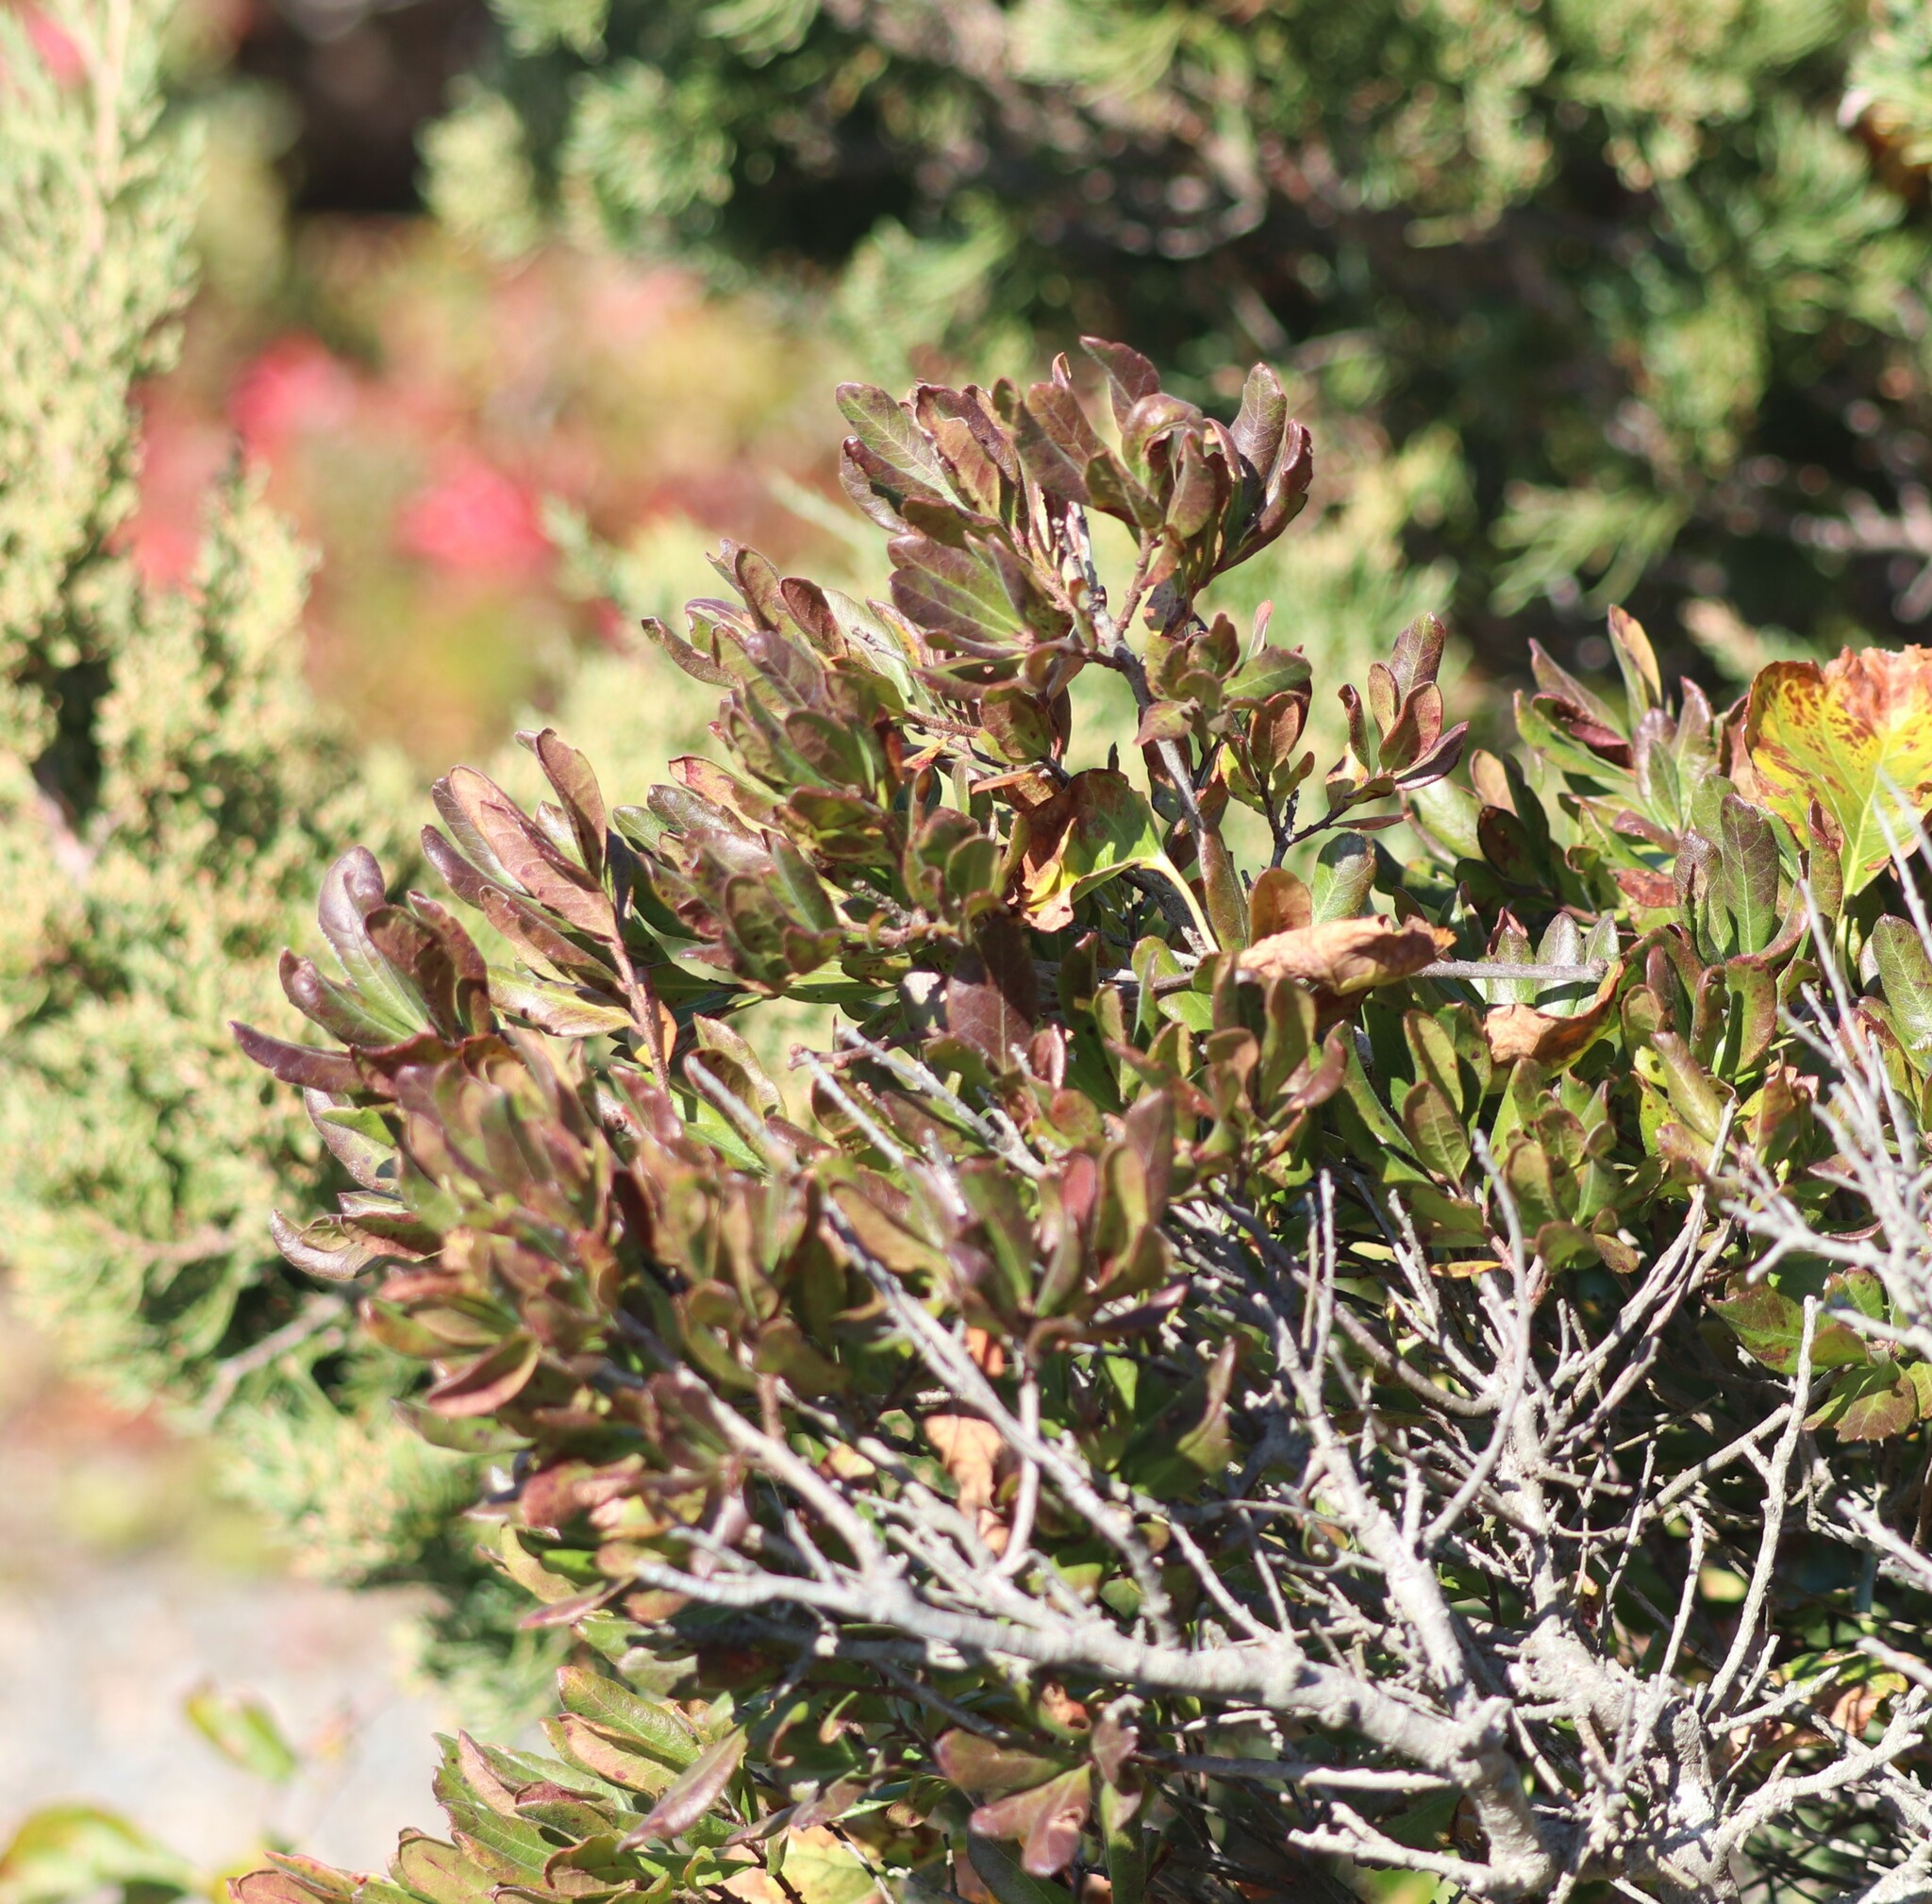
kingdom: Plantae
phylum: Tracheophyta
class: Magnoliopsida
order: Fagales
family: Myricaceae
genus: Morella
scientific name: Morella pensylvanica
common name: Northern bayberry
